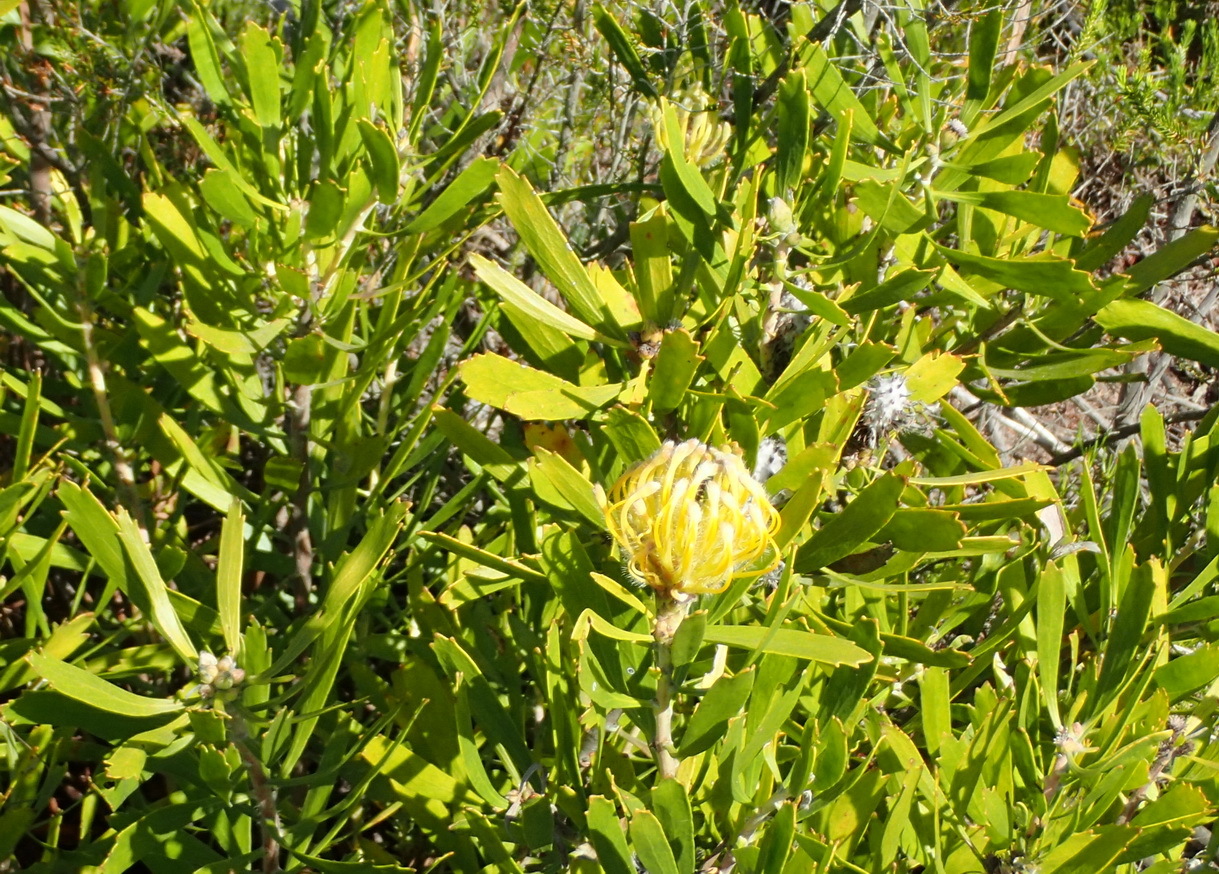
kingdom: Plantae
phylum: Tracheophyta
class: Magnoliopsida
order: Proteales
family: Proteaceae
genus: Leucospermum
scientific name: Leucospermum cuneiforme
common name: Common pincushion
